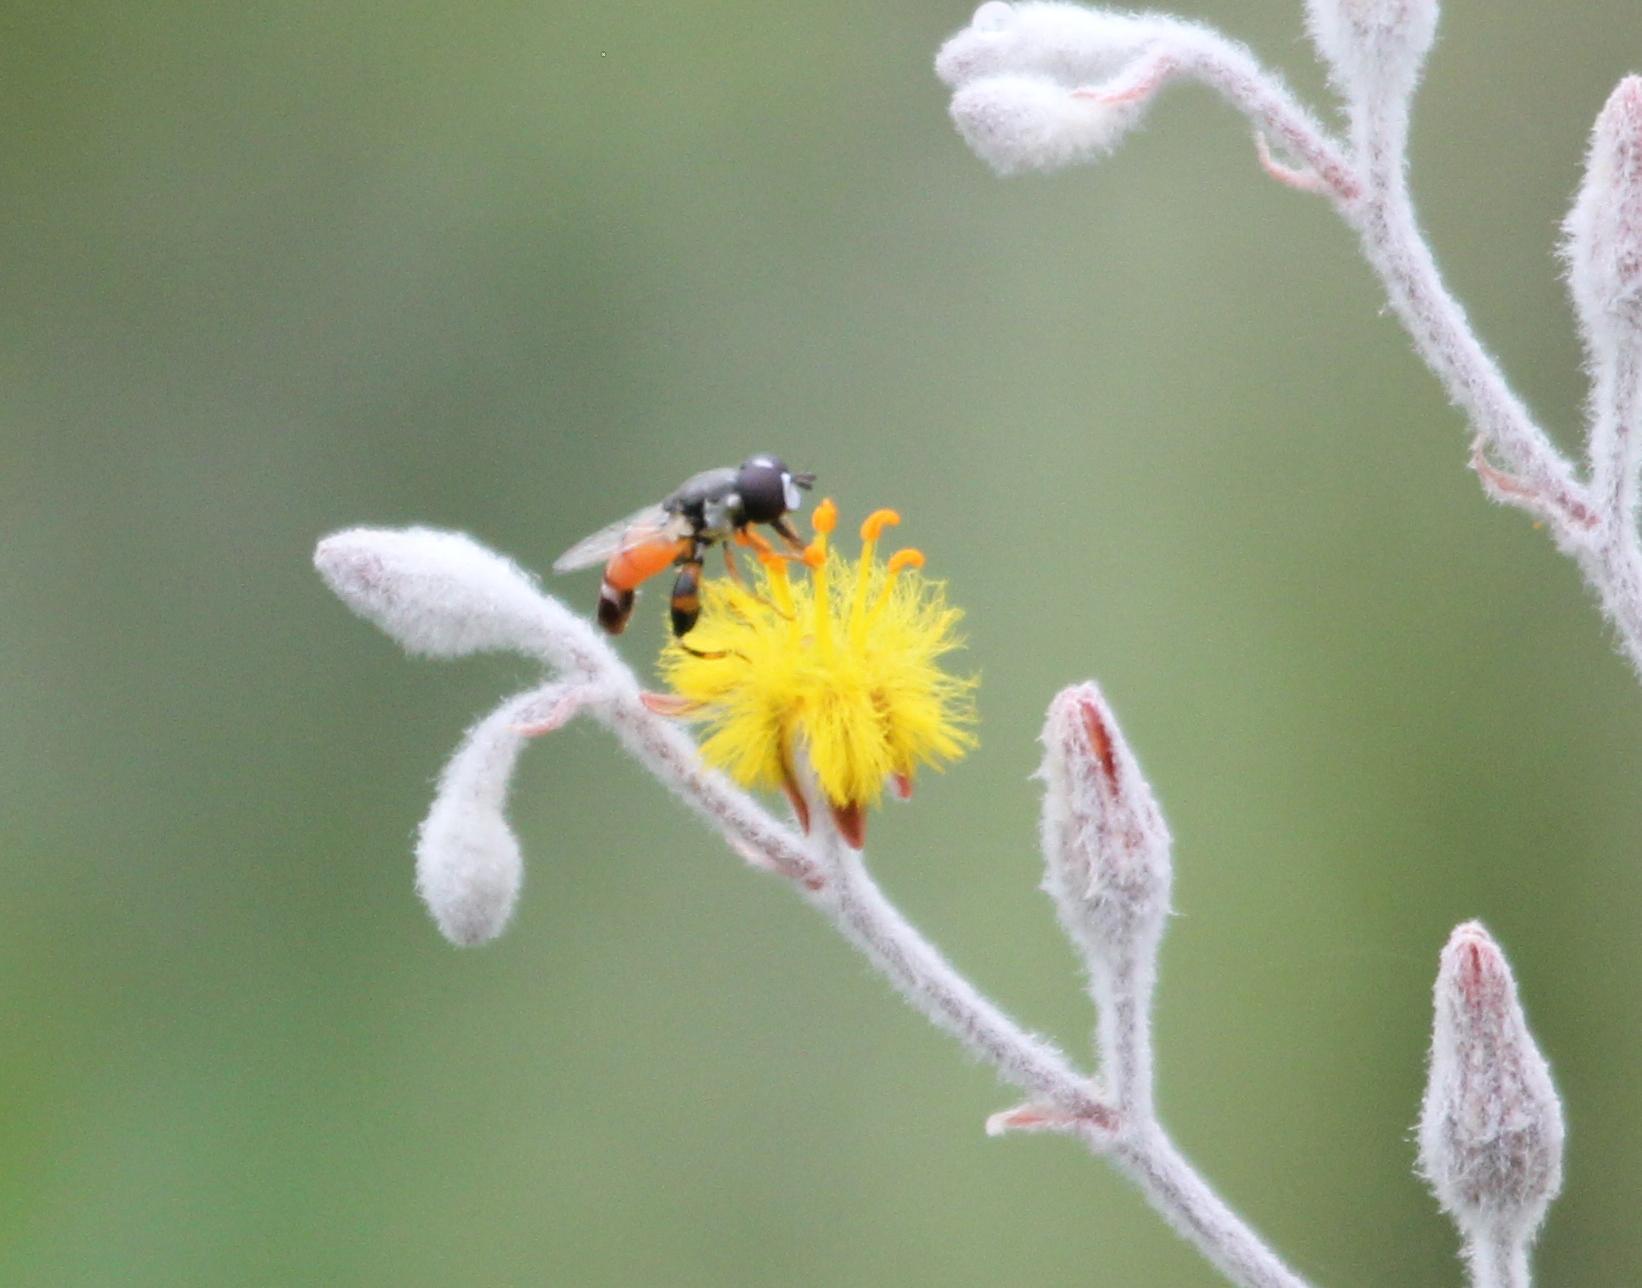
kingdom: Animalia
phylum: Arthropoda
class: Insecta
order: Diptera
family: Syrphidae
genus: Syritta
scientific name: Syritta flaviventris
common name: Syrphid fly
